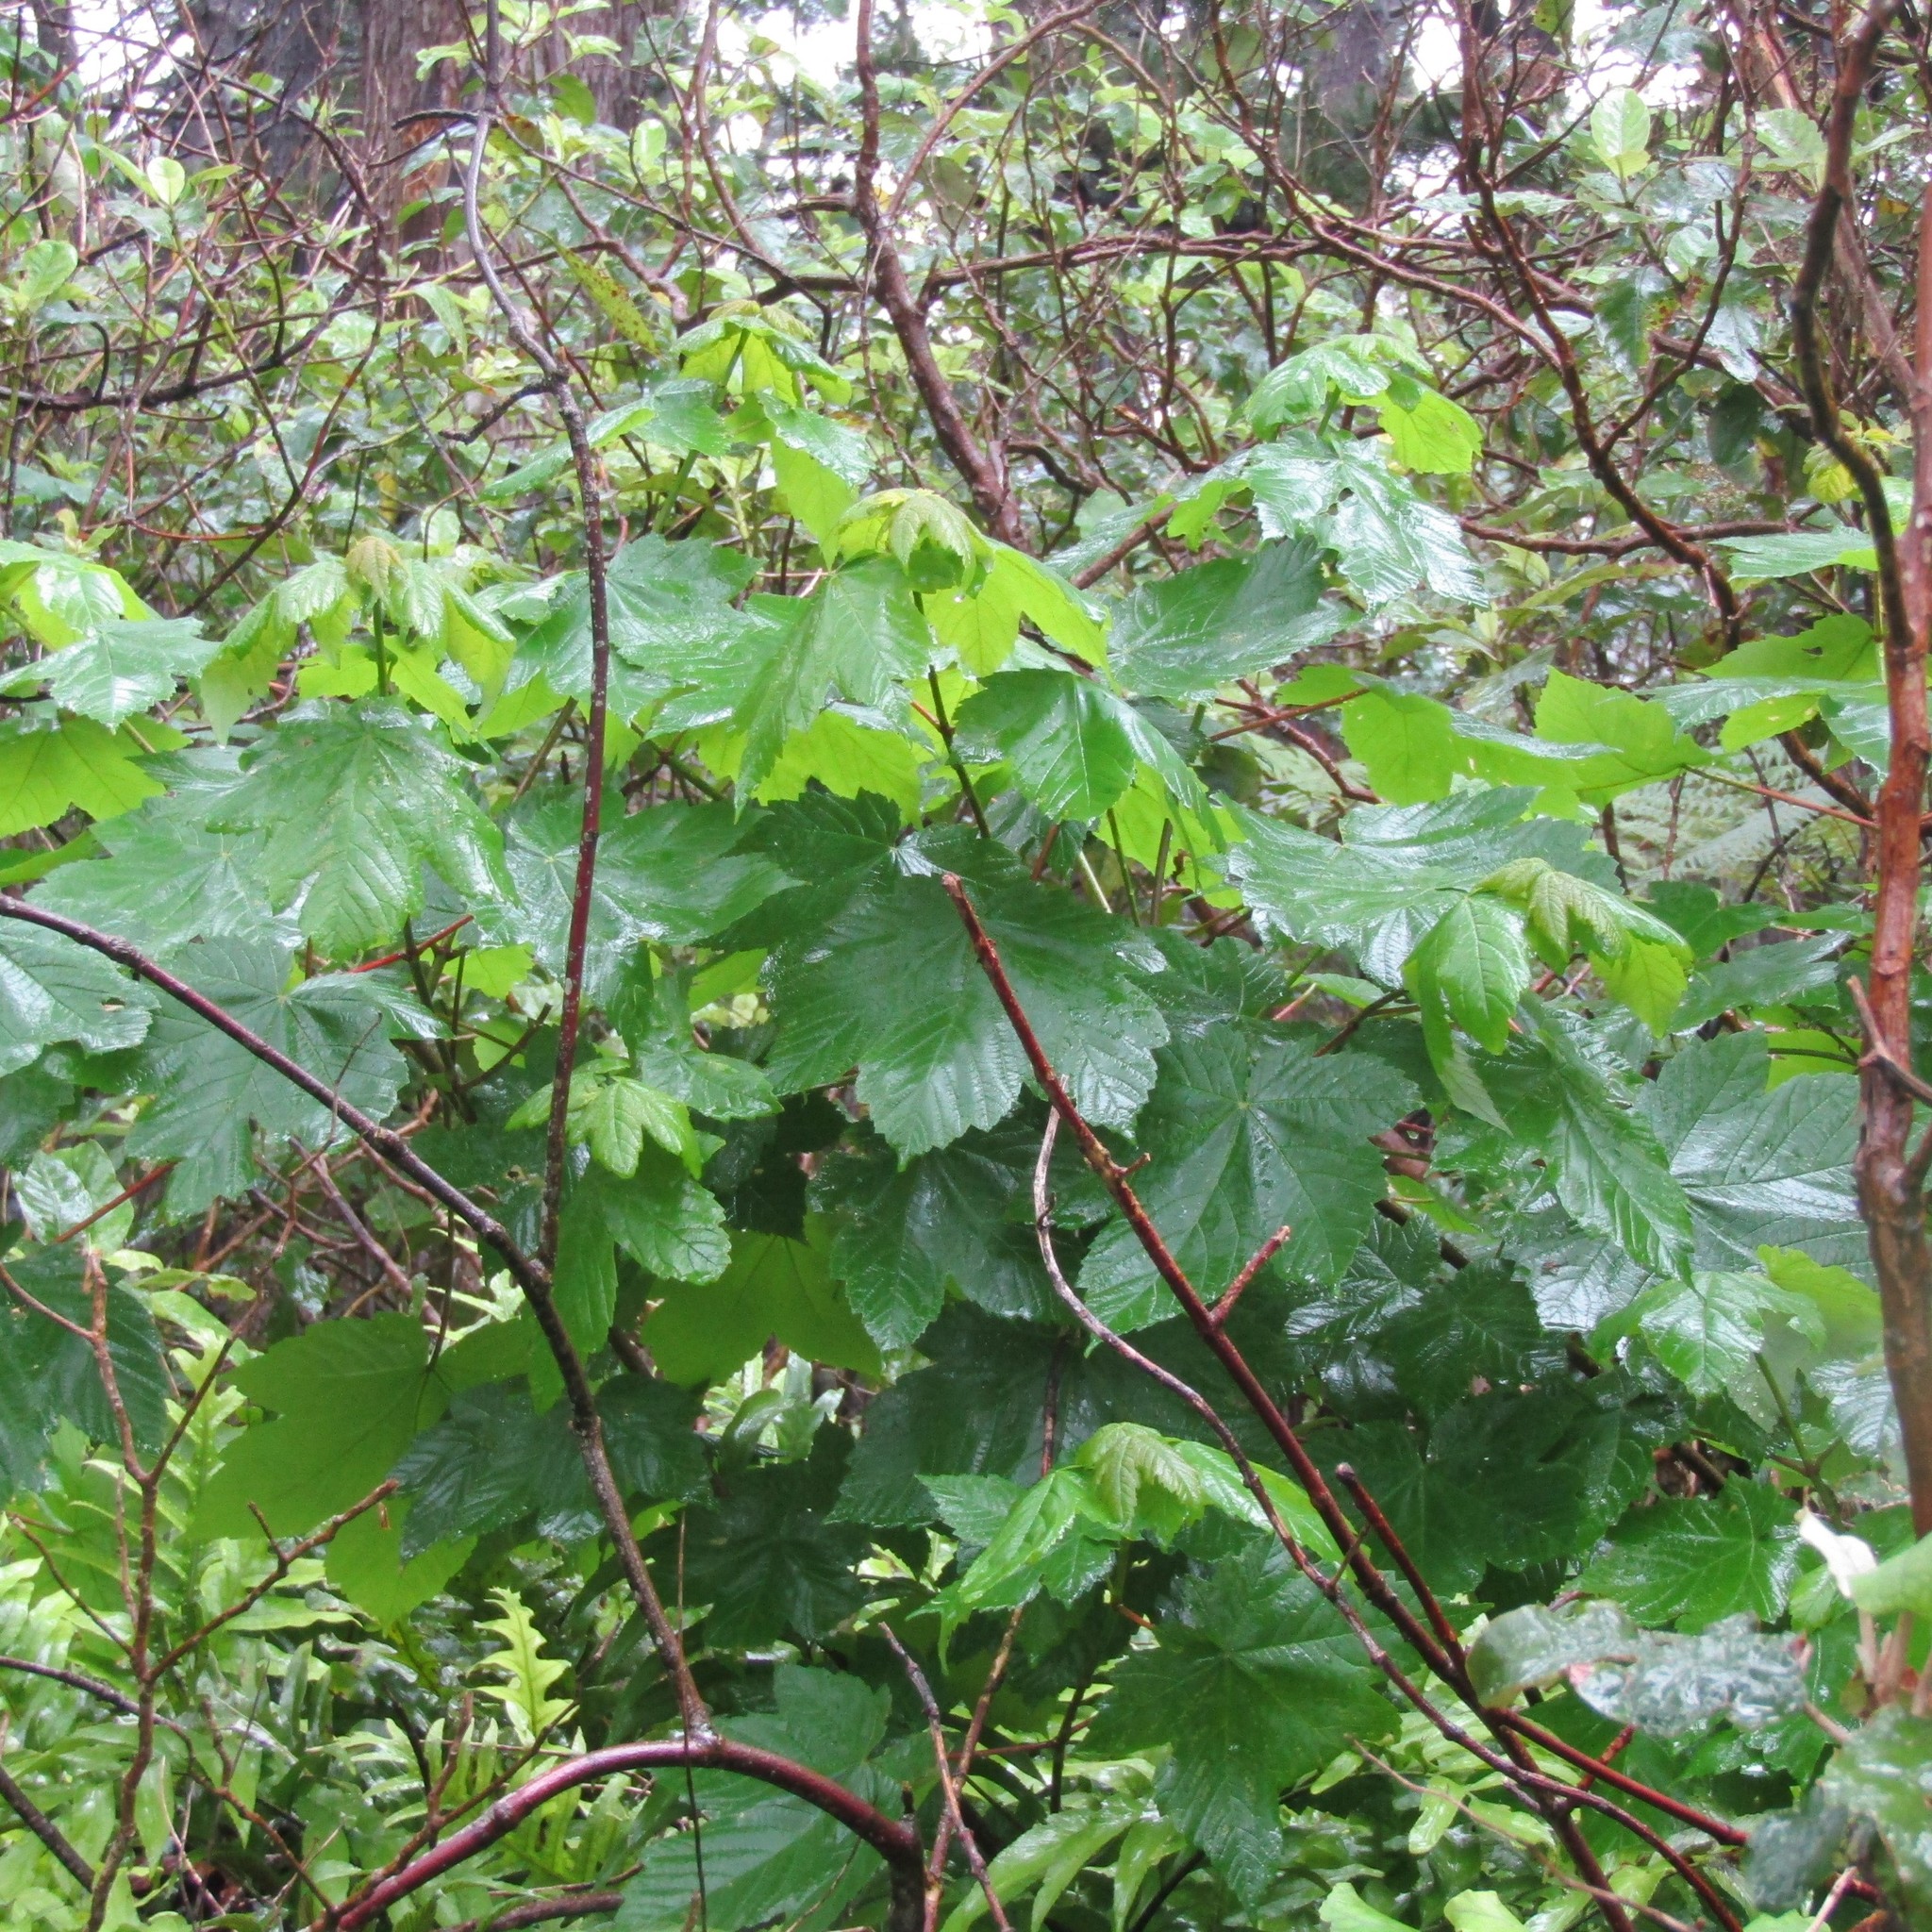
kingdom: Plantae
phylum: Tracheophyta
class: Magnoliopsida
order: Sapindales
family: Sapindaceae
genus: Acer
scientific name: Acer pseudoplatanus
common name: Sycamore
